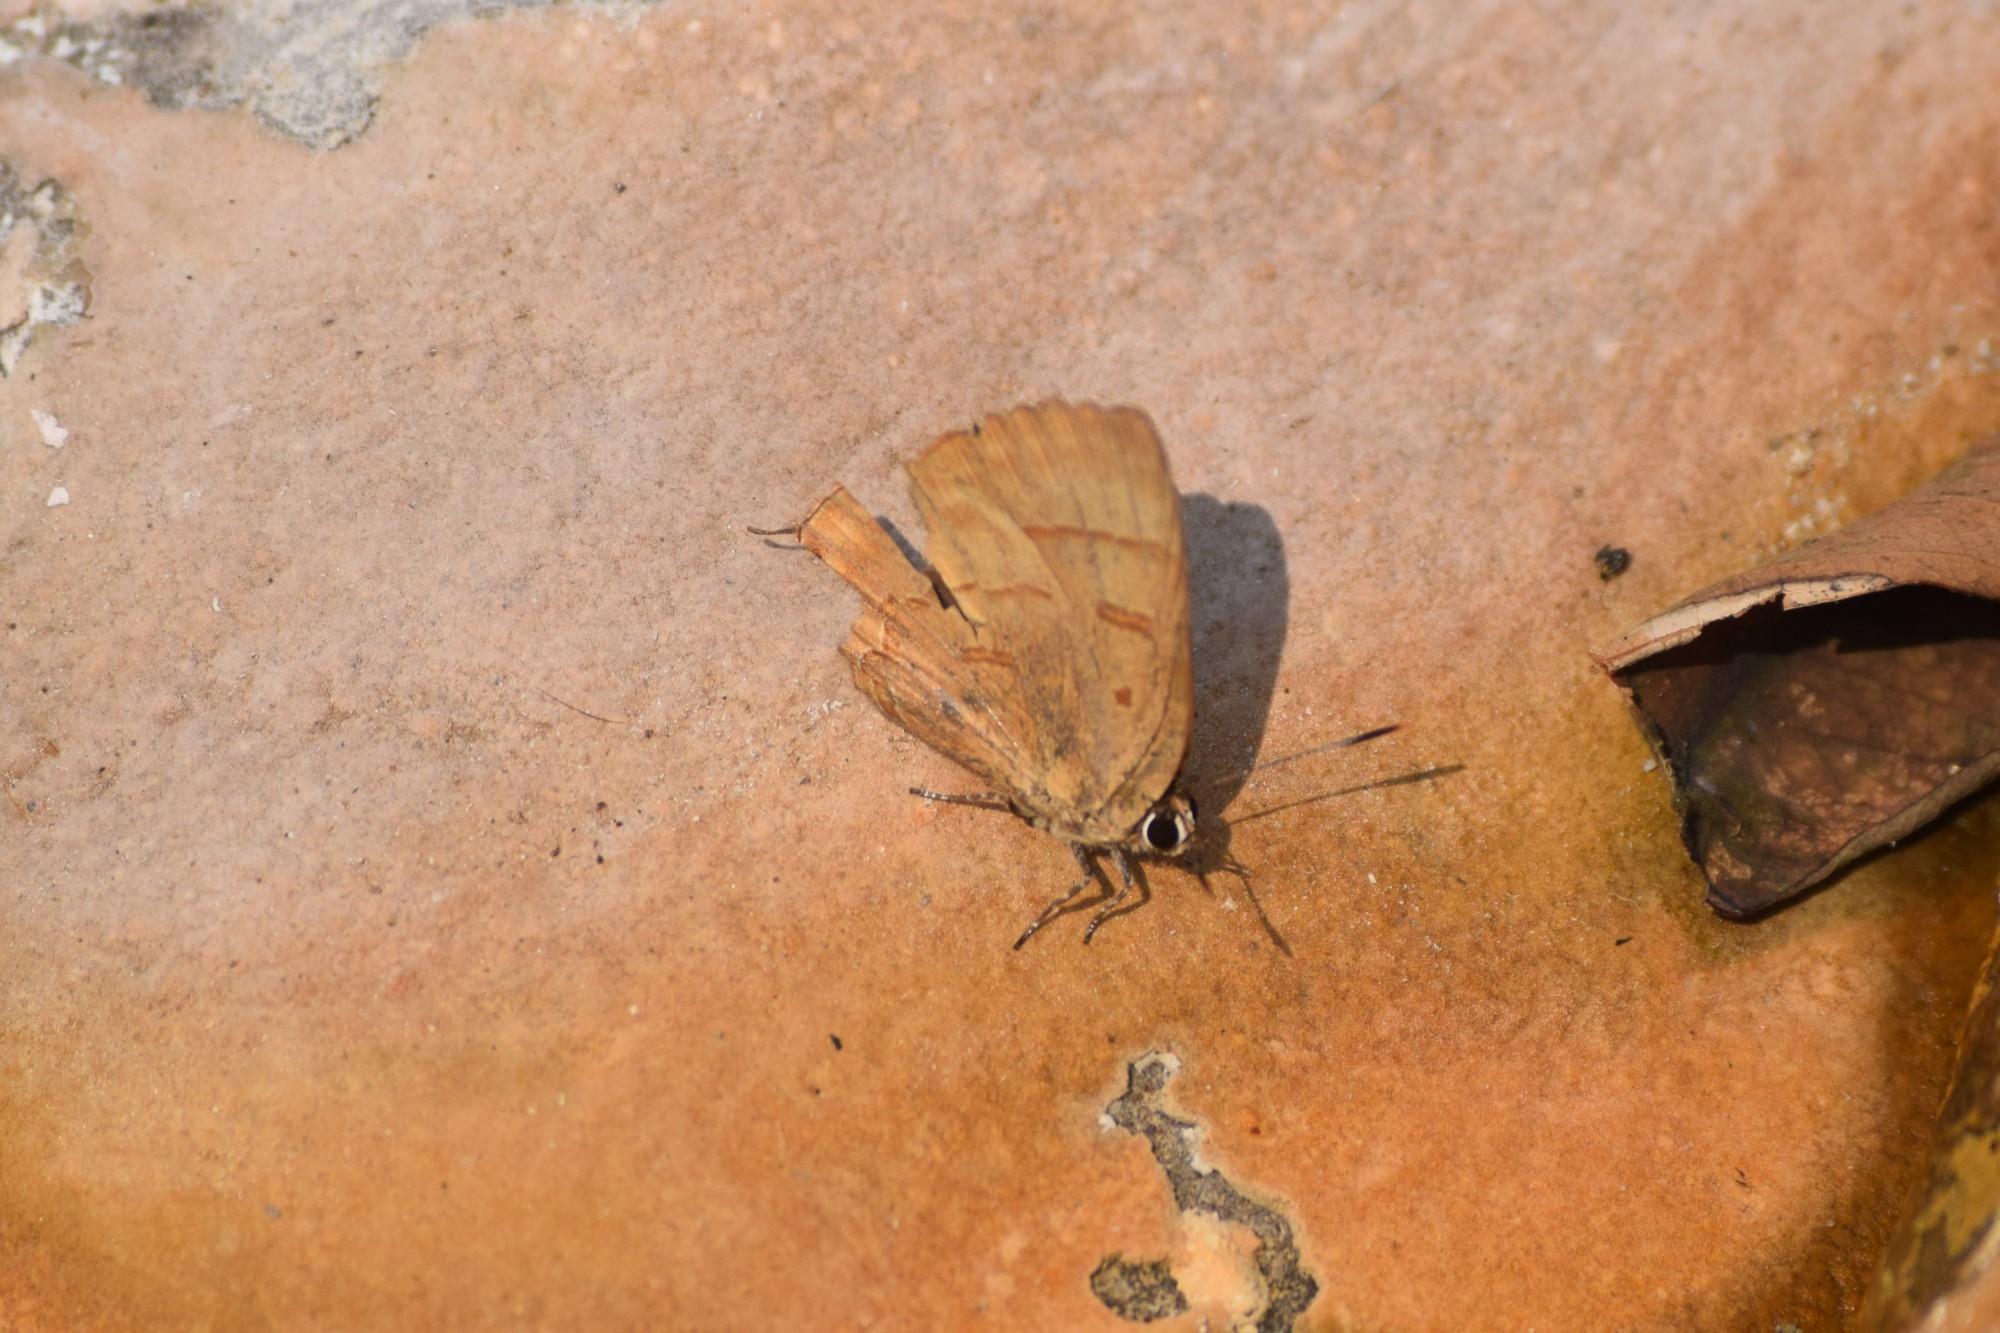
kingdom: Animalia
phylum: Arthropoda
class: Insecta
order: Lepidoptera
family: Lycaenidae
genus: Rapala
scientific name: Rapala pheretima
